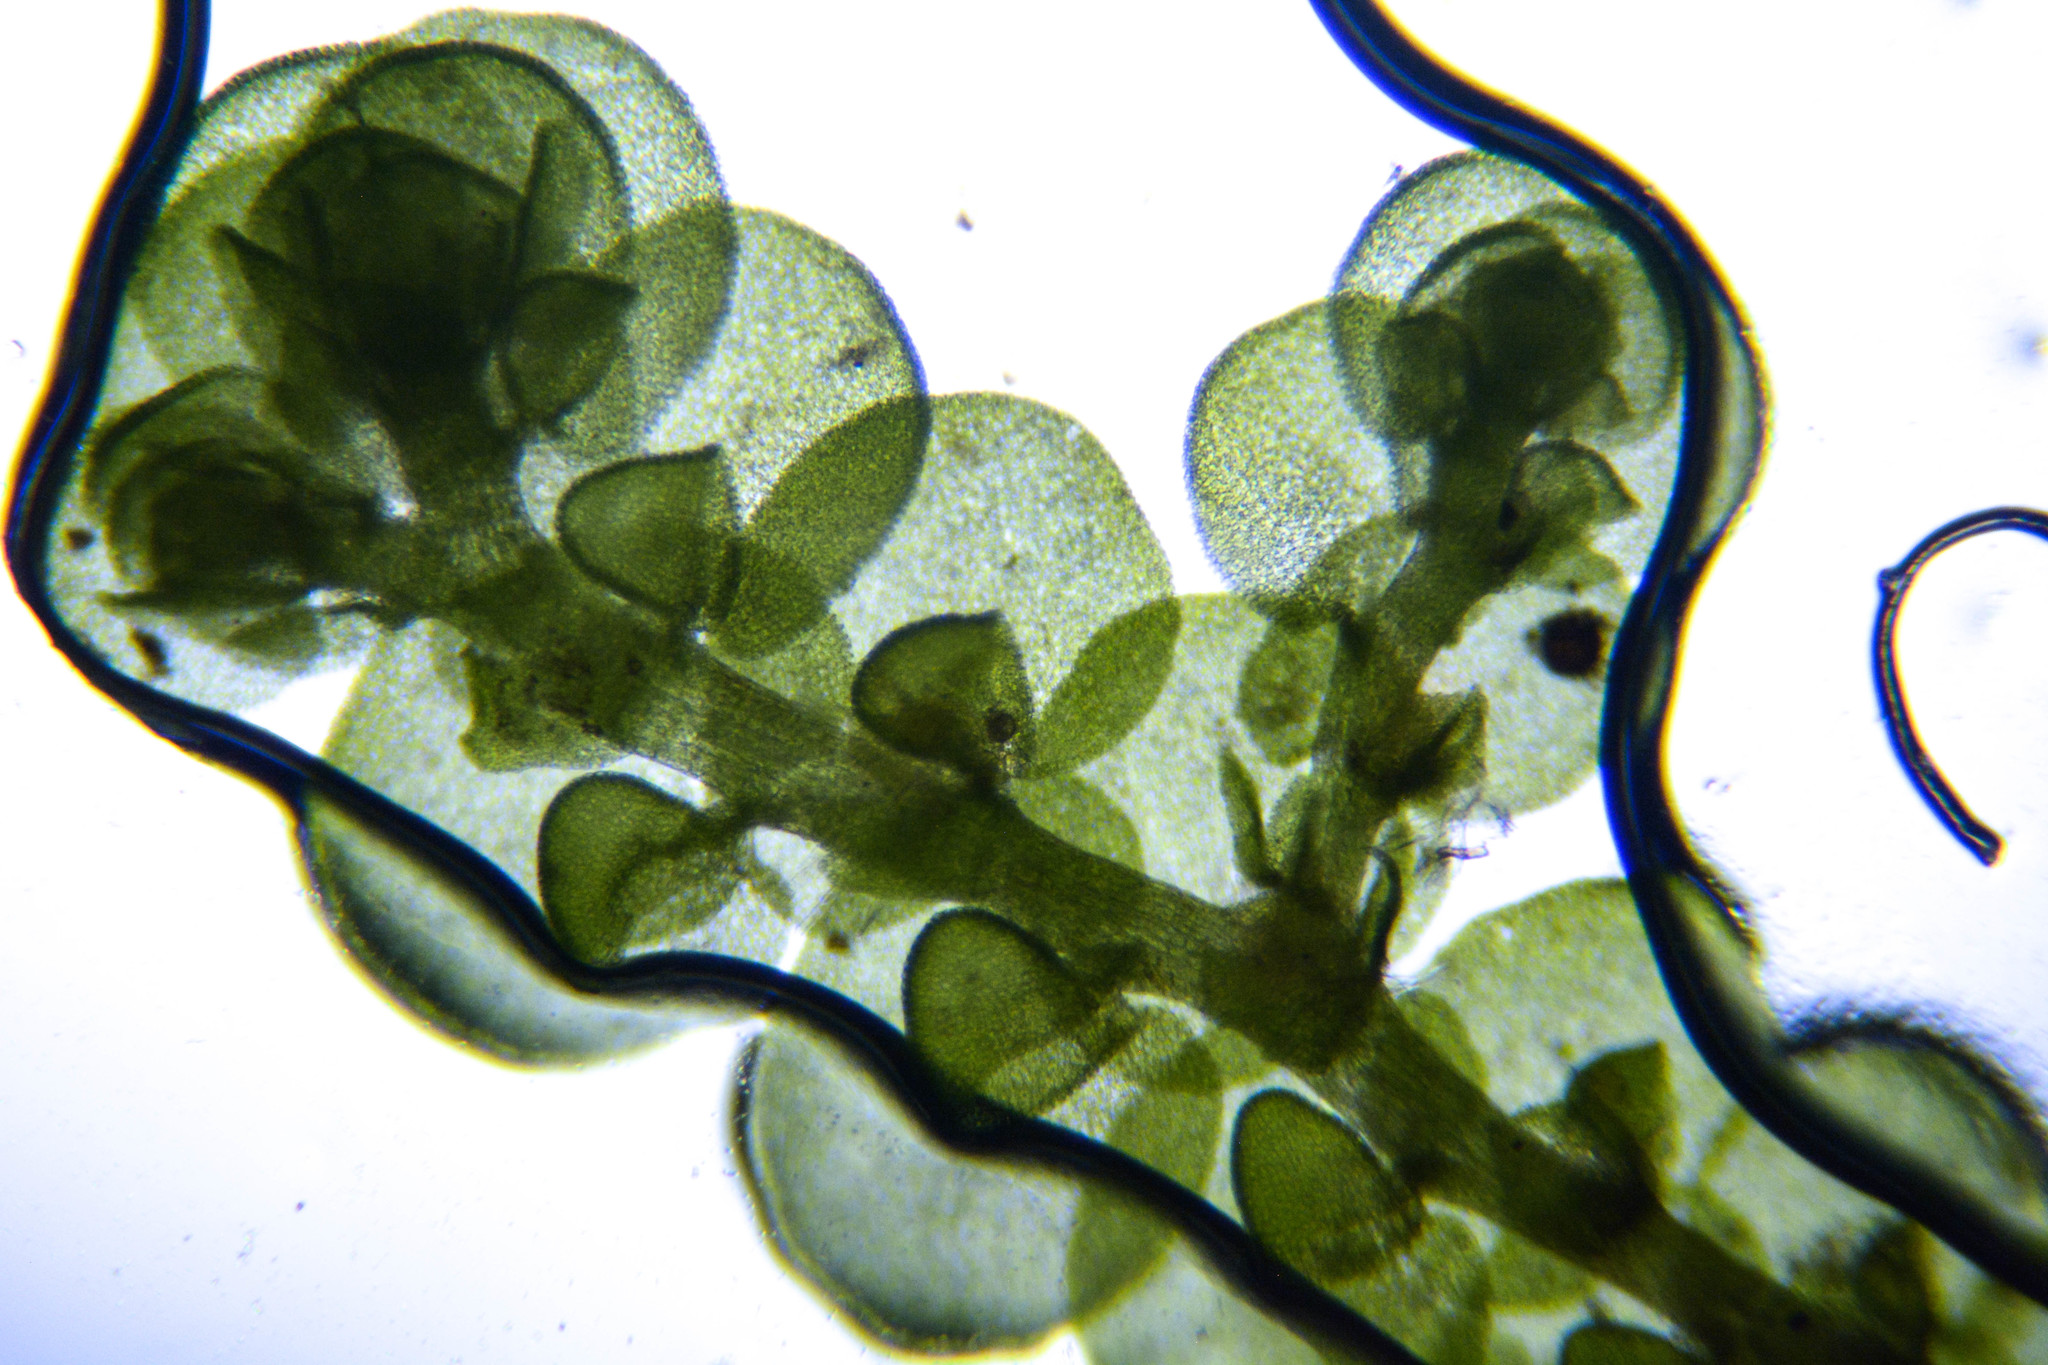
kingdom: Plantae
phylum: Marchantiophyta
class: Jungermanniopsida
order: Porellales
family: Frullaniaceae
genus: Frullania
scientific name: Frullania dilatata
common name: Dilated scalewort
